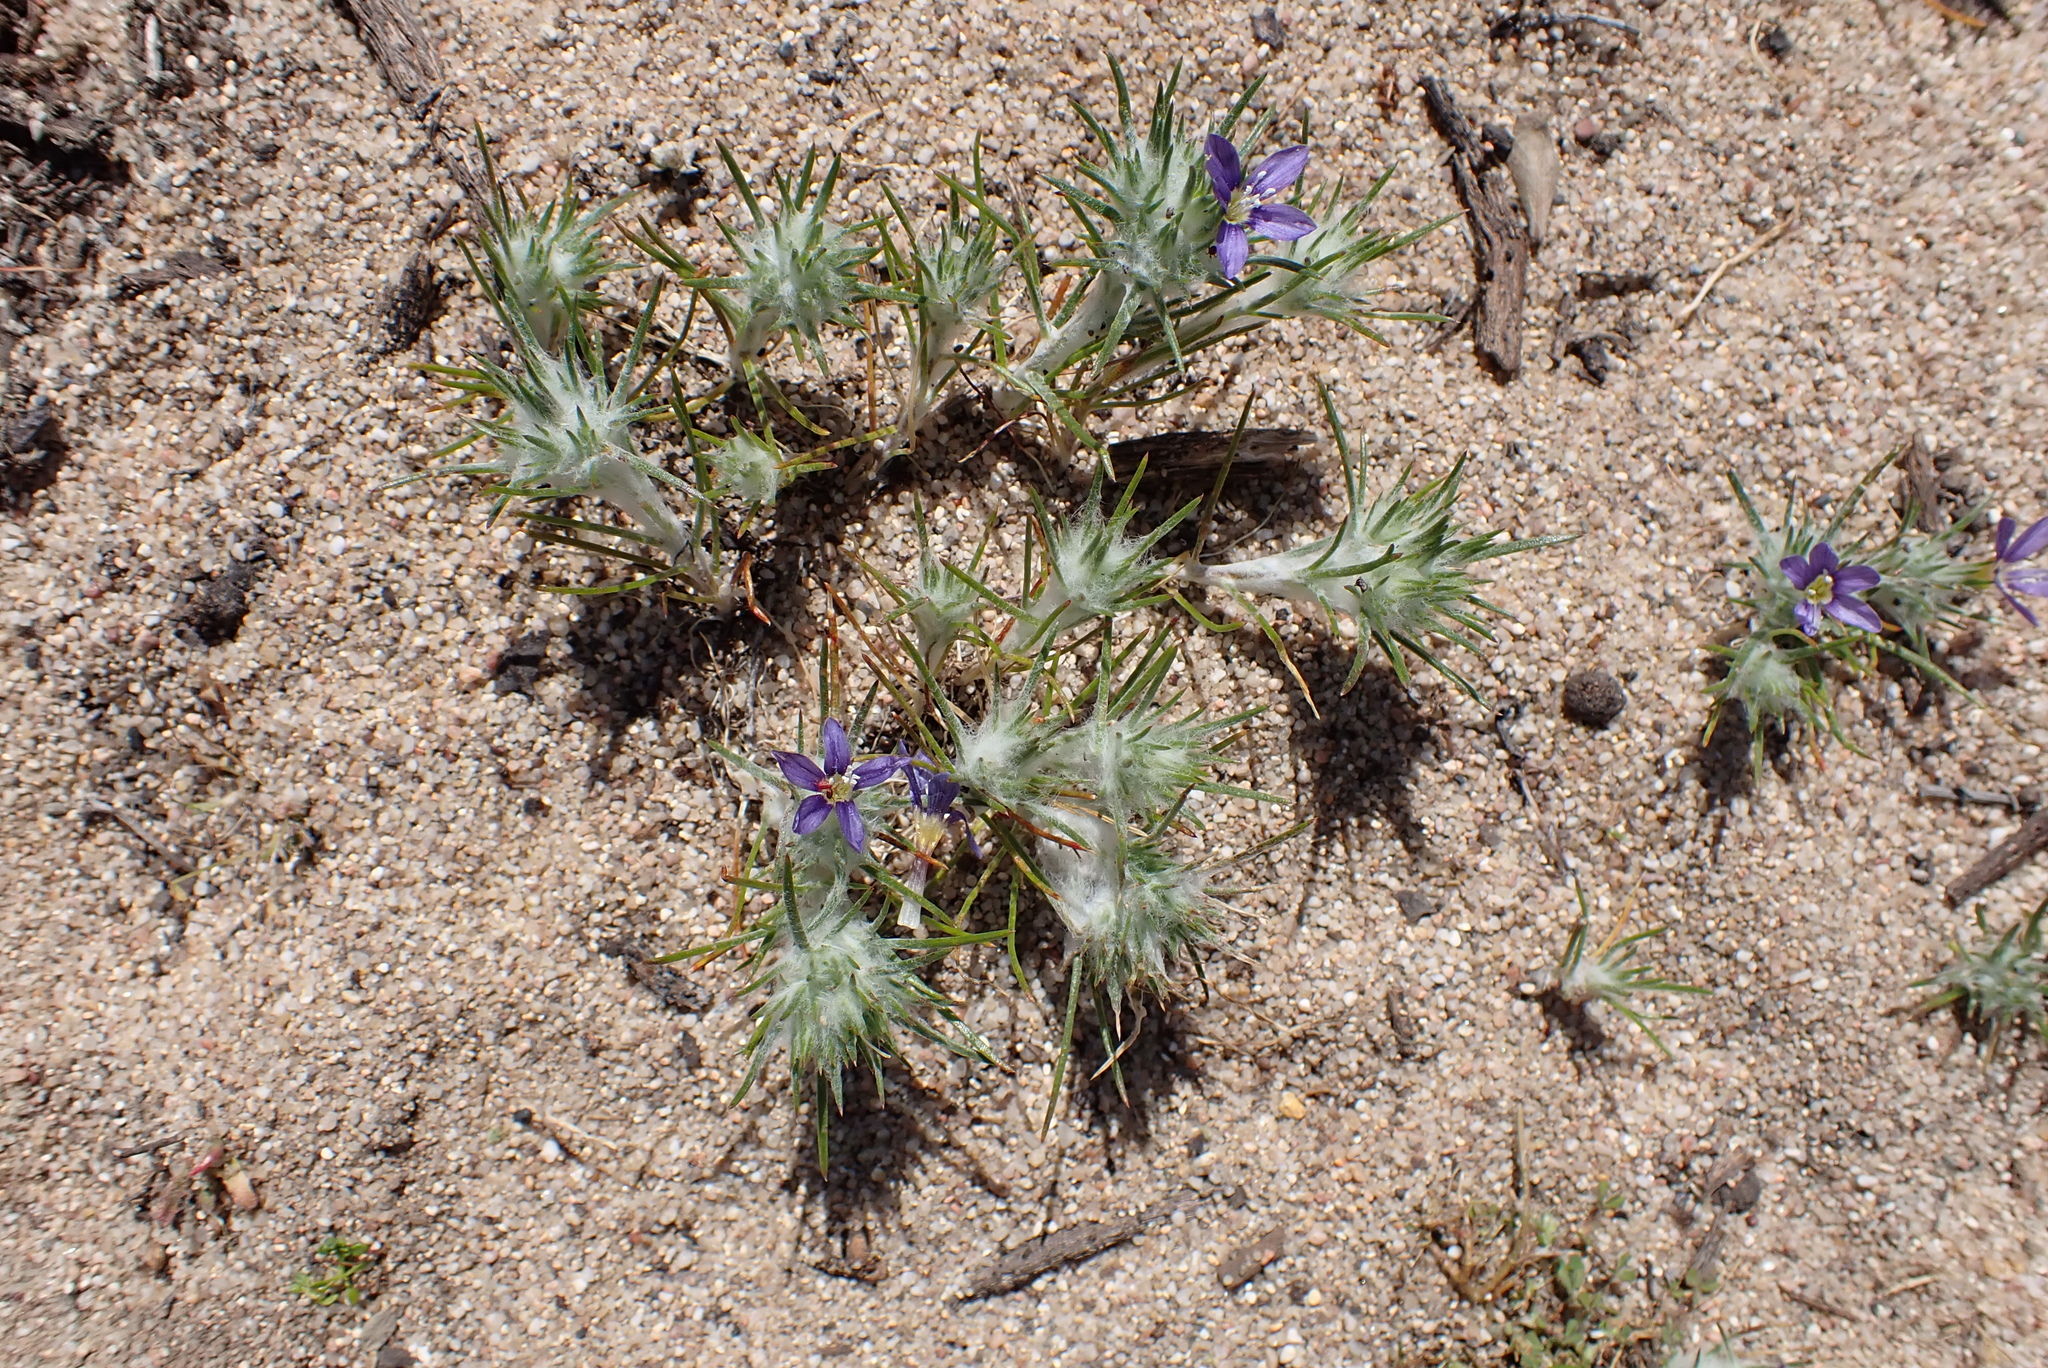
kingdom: Plantae
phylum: Tracheophyta
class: Magnoliopsida
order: Ericales
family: Polemoniaceae
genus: Eriastrum
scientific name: Eriastrum virgatum
